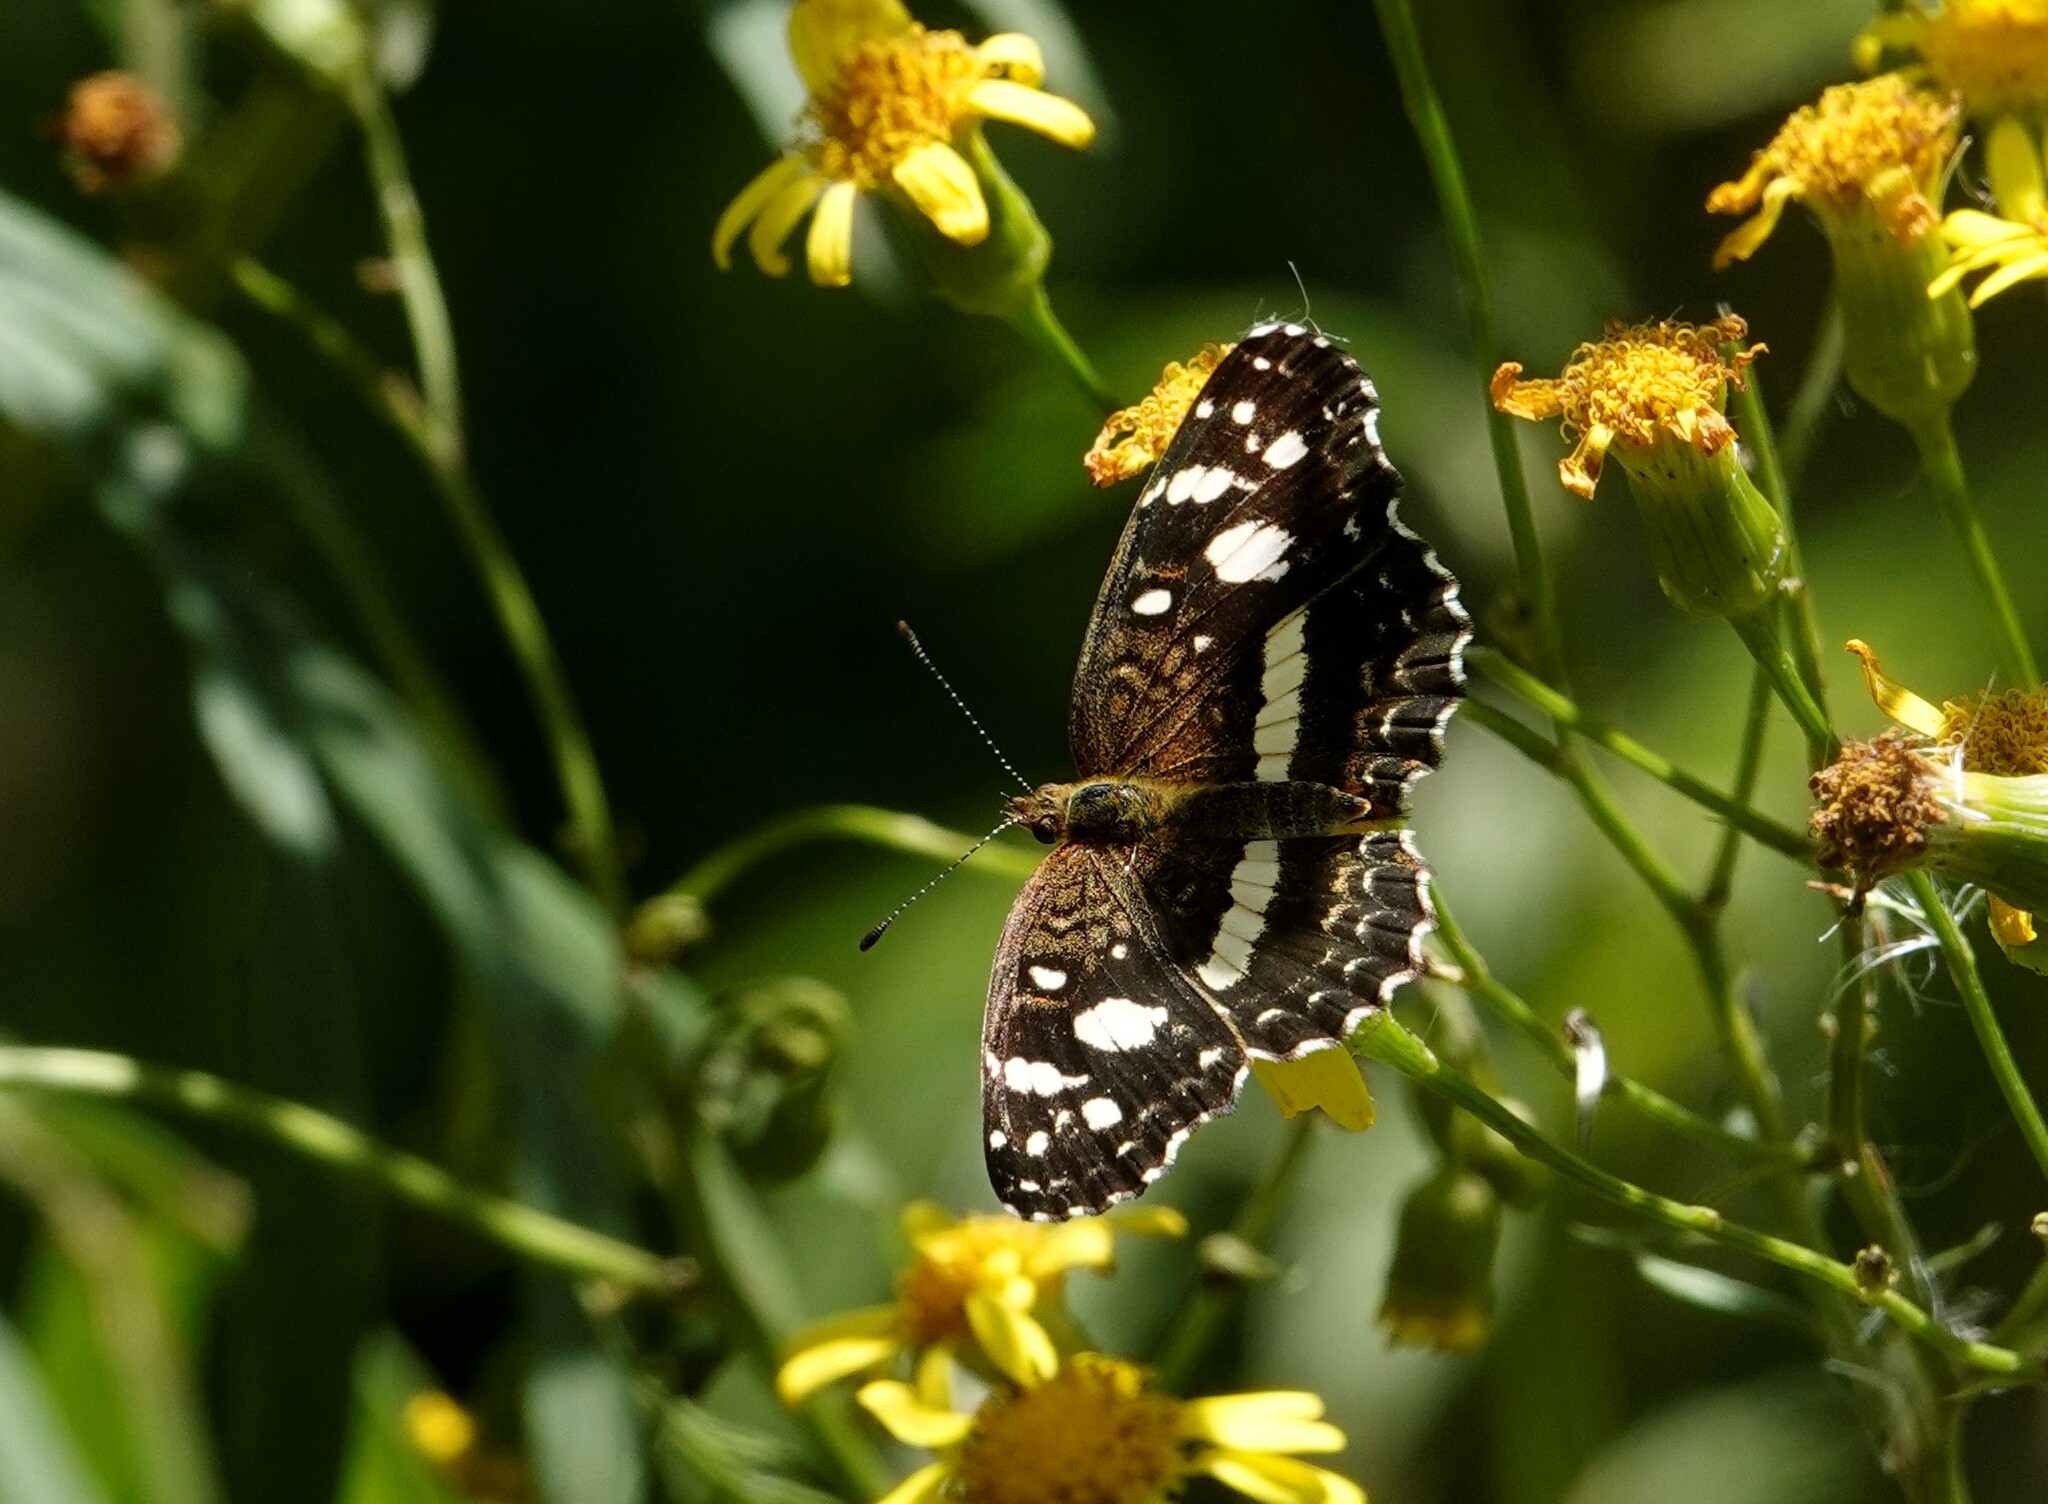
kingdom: Animalia
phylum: Arthropoda
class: Insecta
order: Lepidoptera
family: Nymphalidae
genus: Ortilia
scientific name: Ortilia ithra
